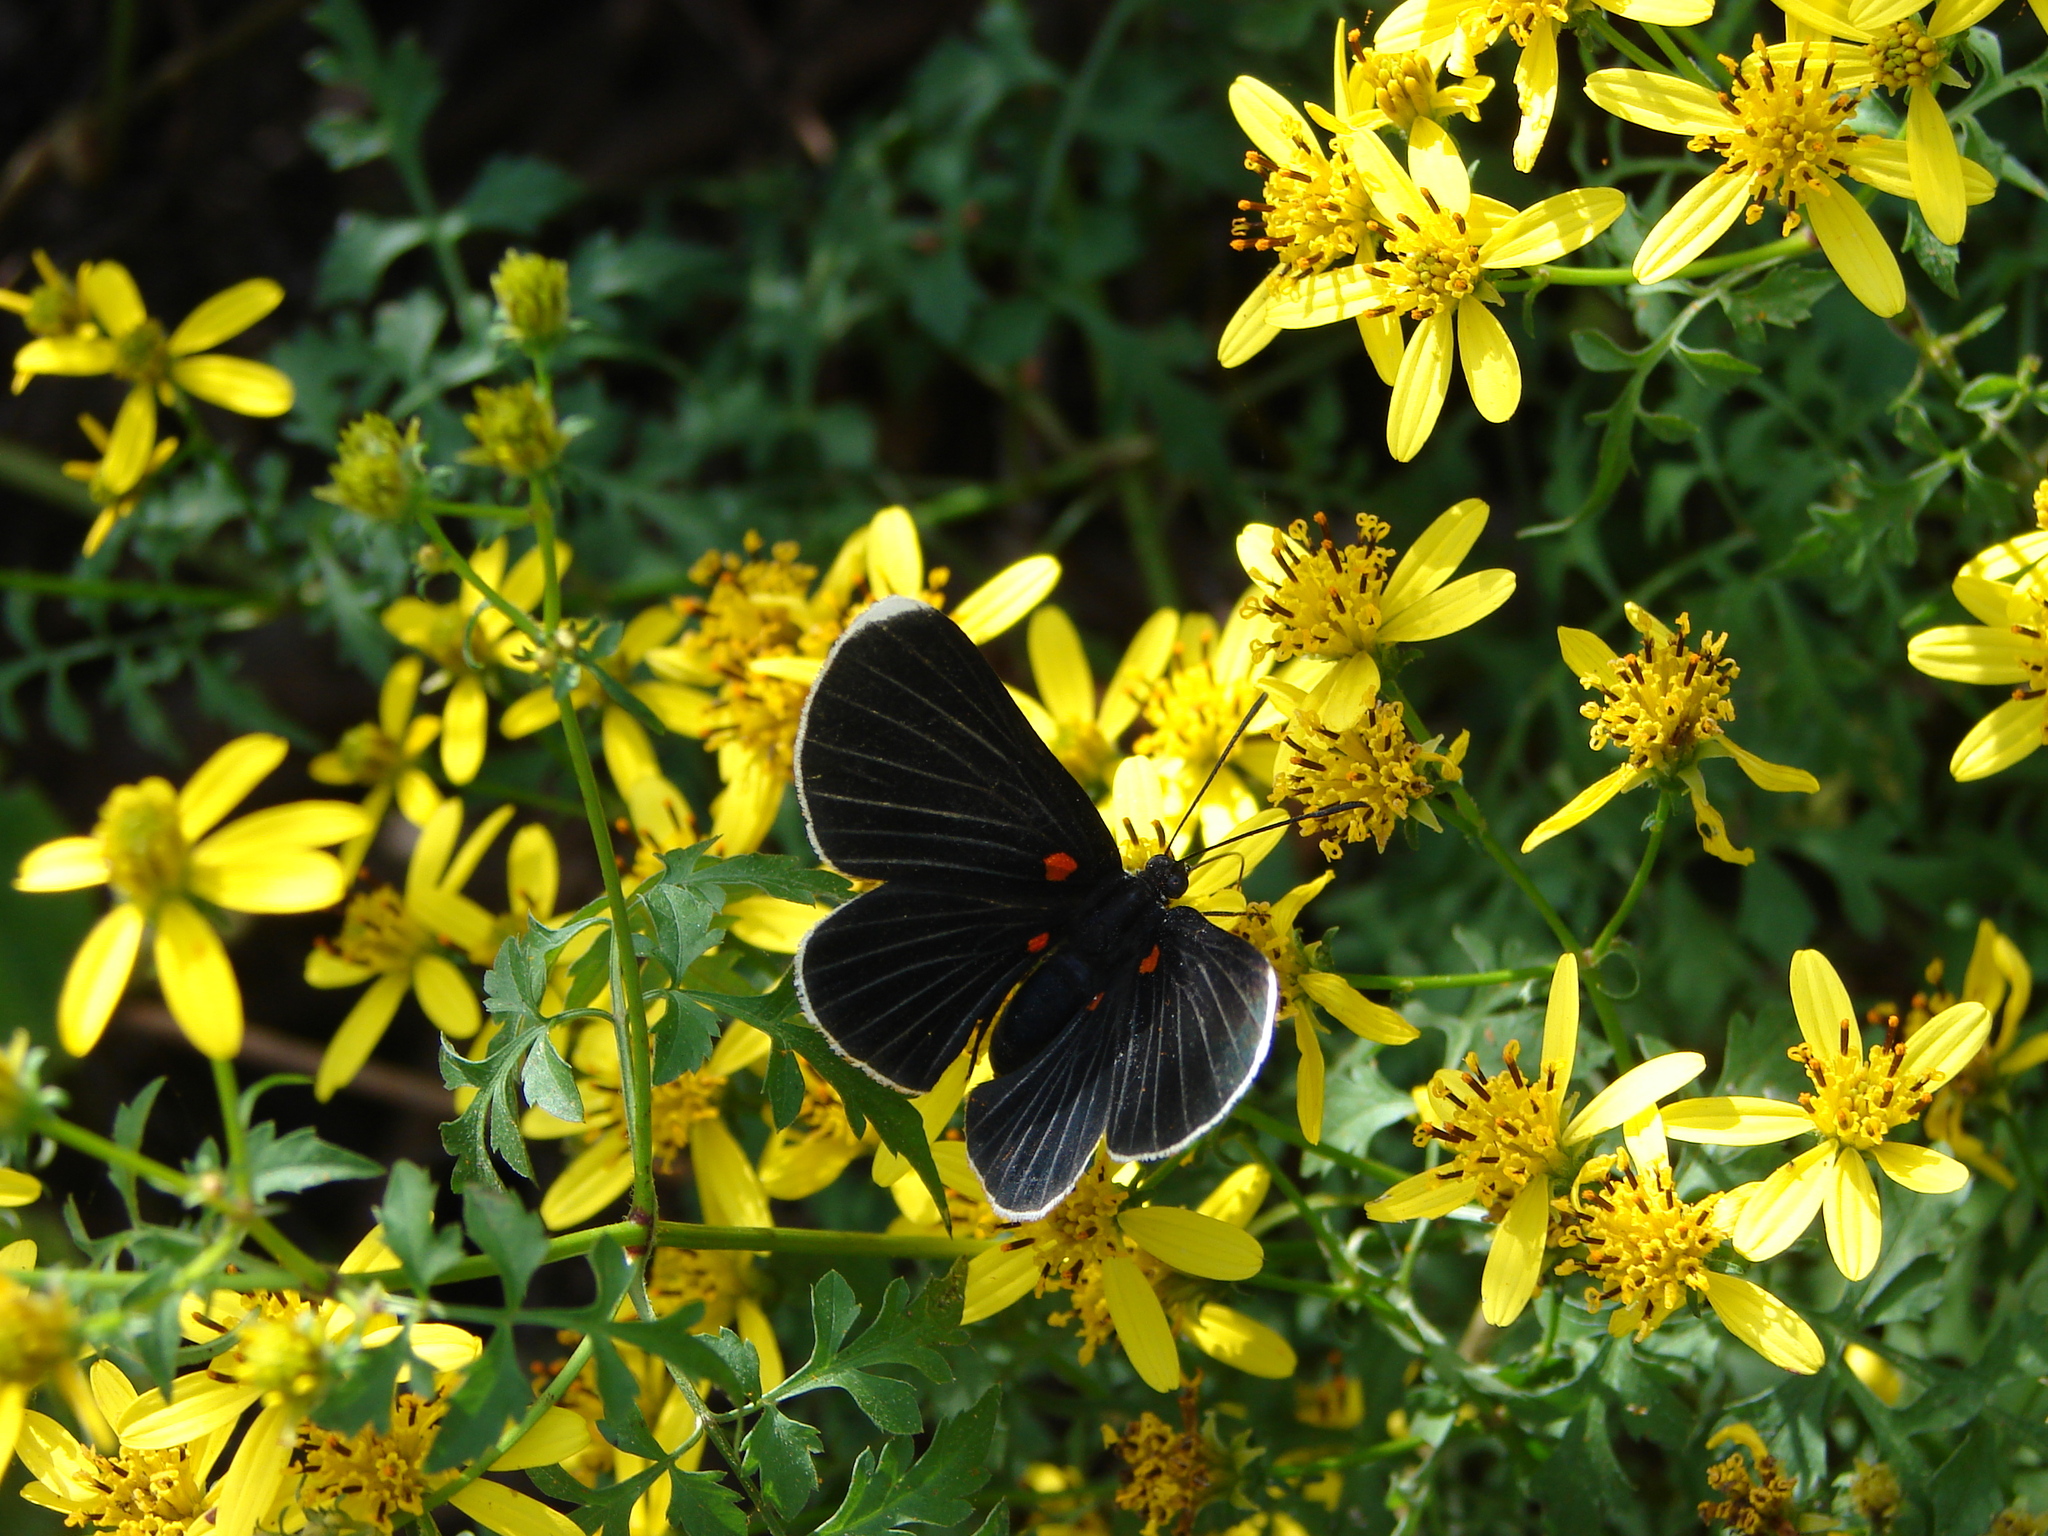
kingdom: Animalia
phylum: Arthropoda
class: Insecta
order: Lepidoptera
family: Lycaenidae
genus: Melanis
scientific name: Melanis
